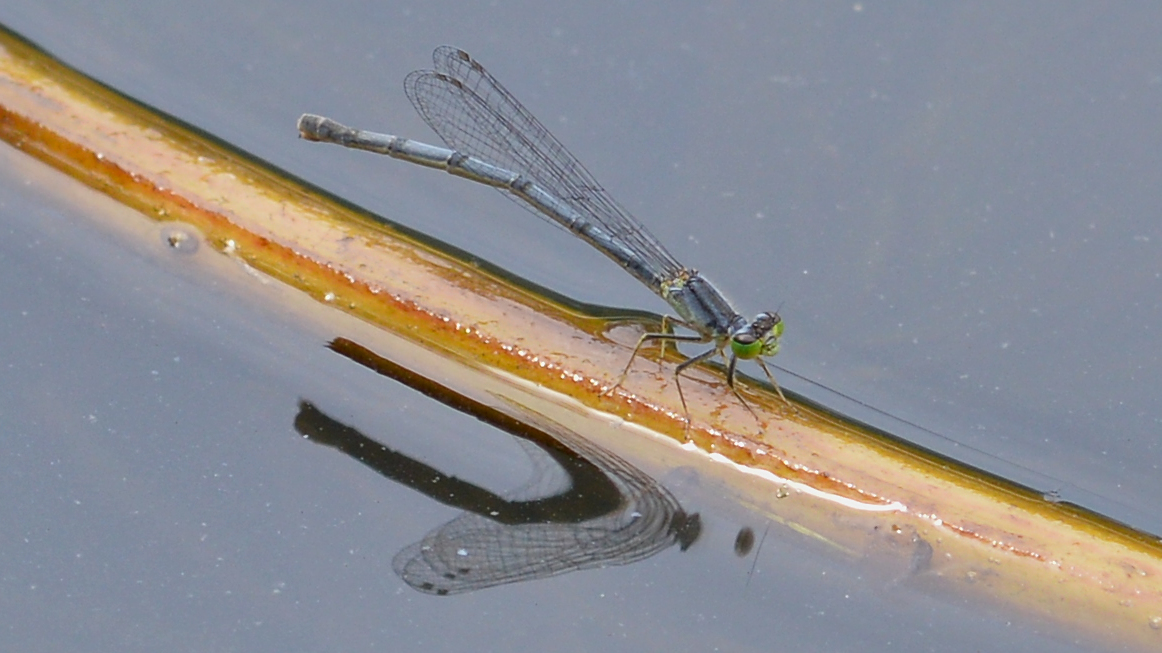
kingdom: Animalia
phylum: Arthropoda
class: Insecta
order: Odonata
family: Coenagrionidae
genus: Ischnura
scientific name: Ischnura verticalis
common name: Eastern forktail
